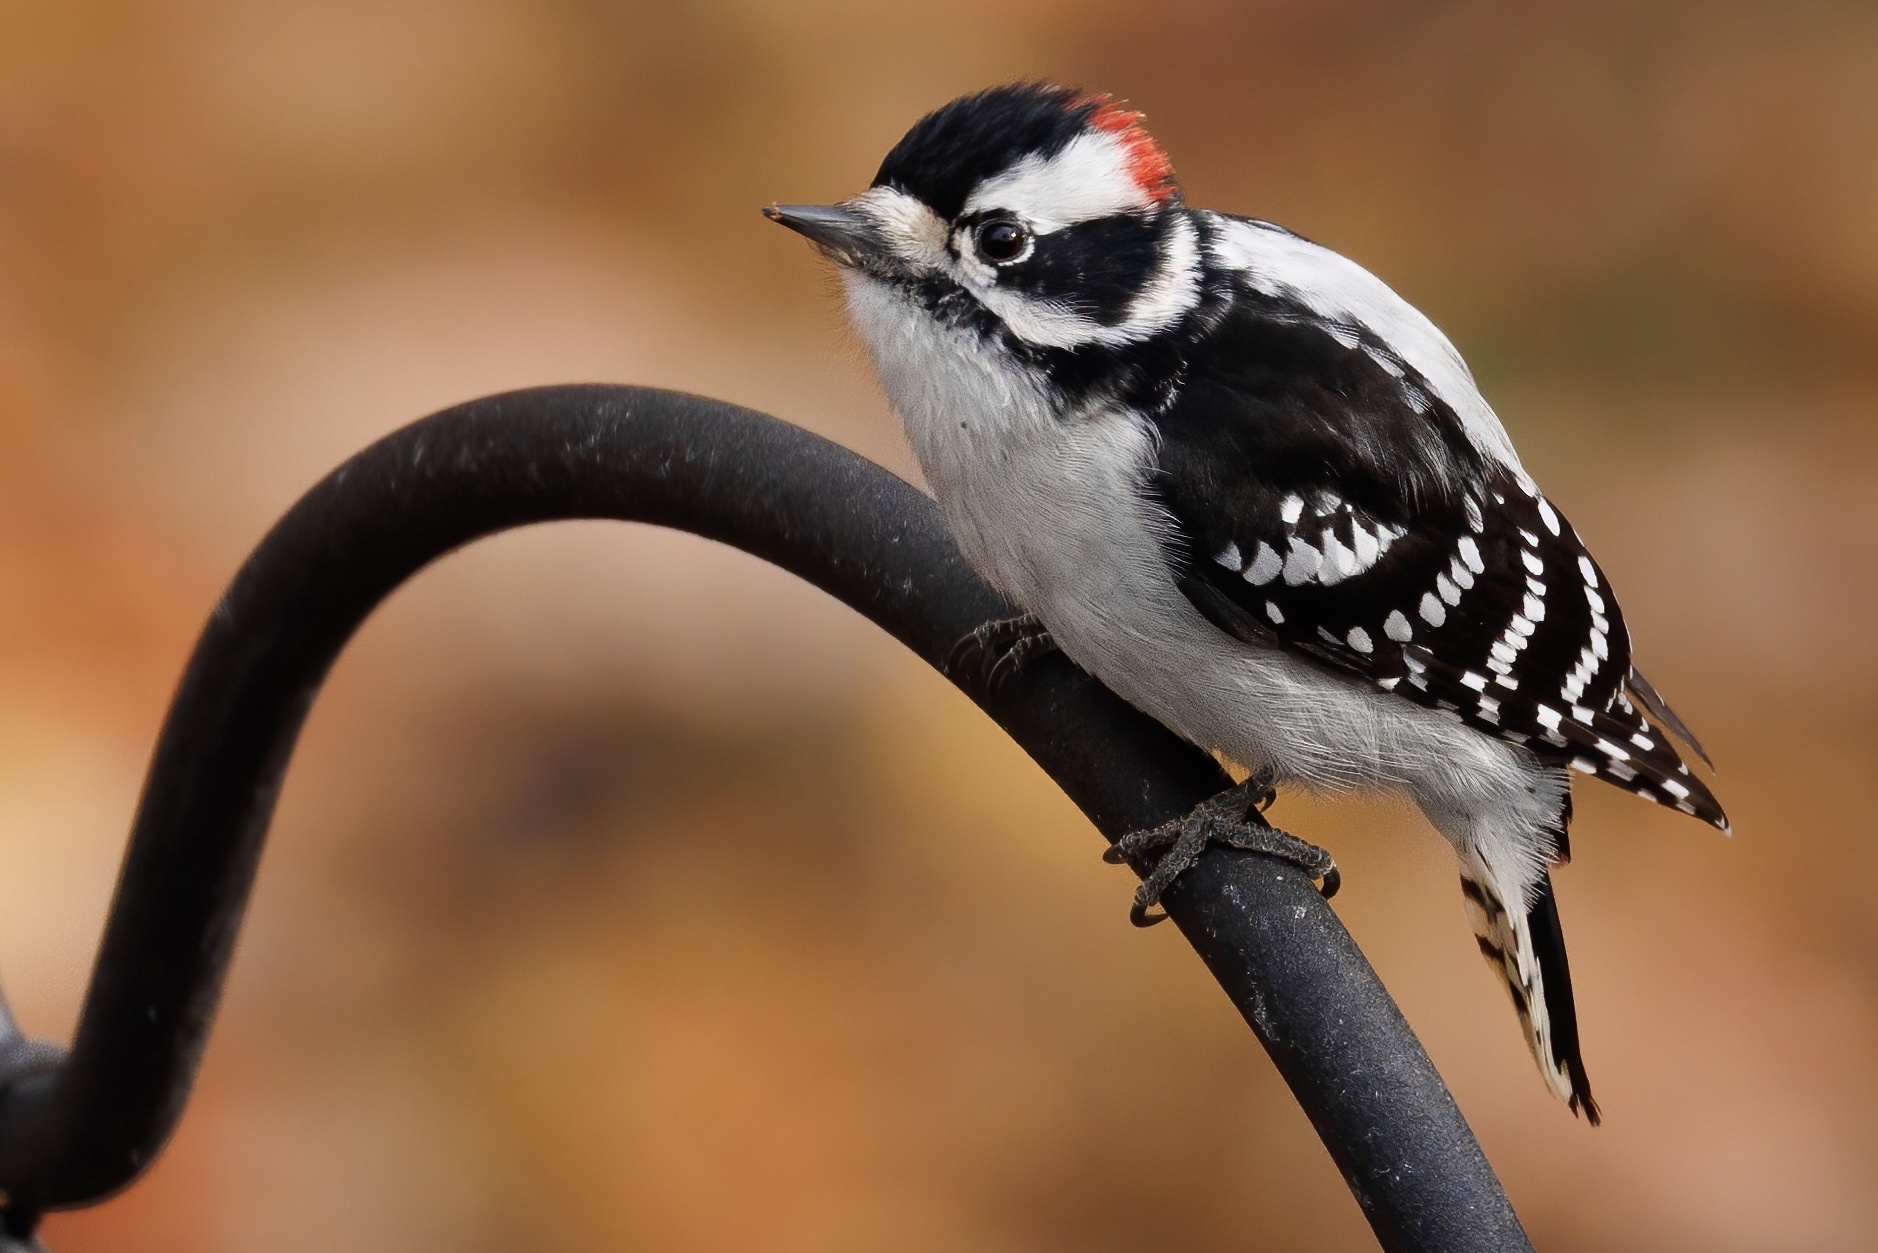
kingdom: Animalia
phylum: Chordata
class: Aves
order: Piciformes
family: Picidae
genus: Dryobates
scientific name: Dryobates pubescens
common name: Downy woodpecker
